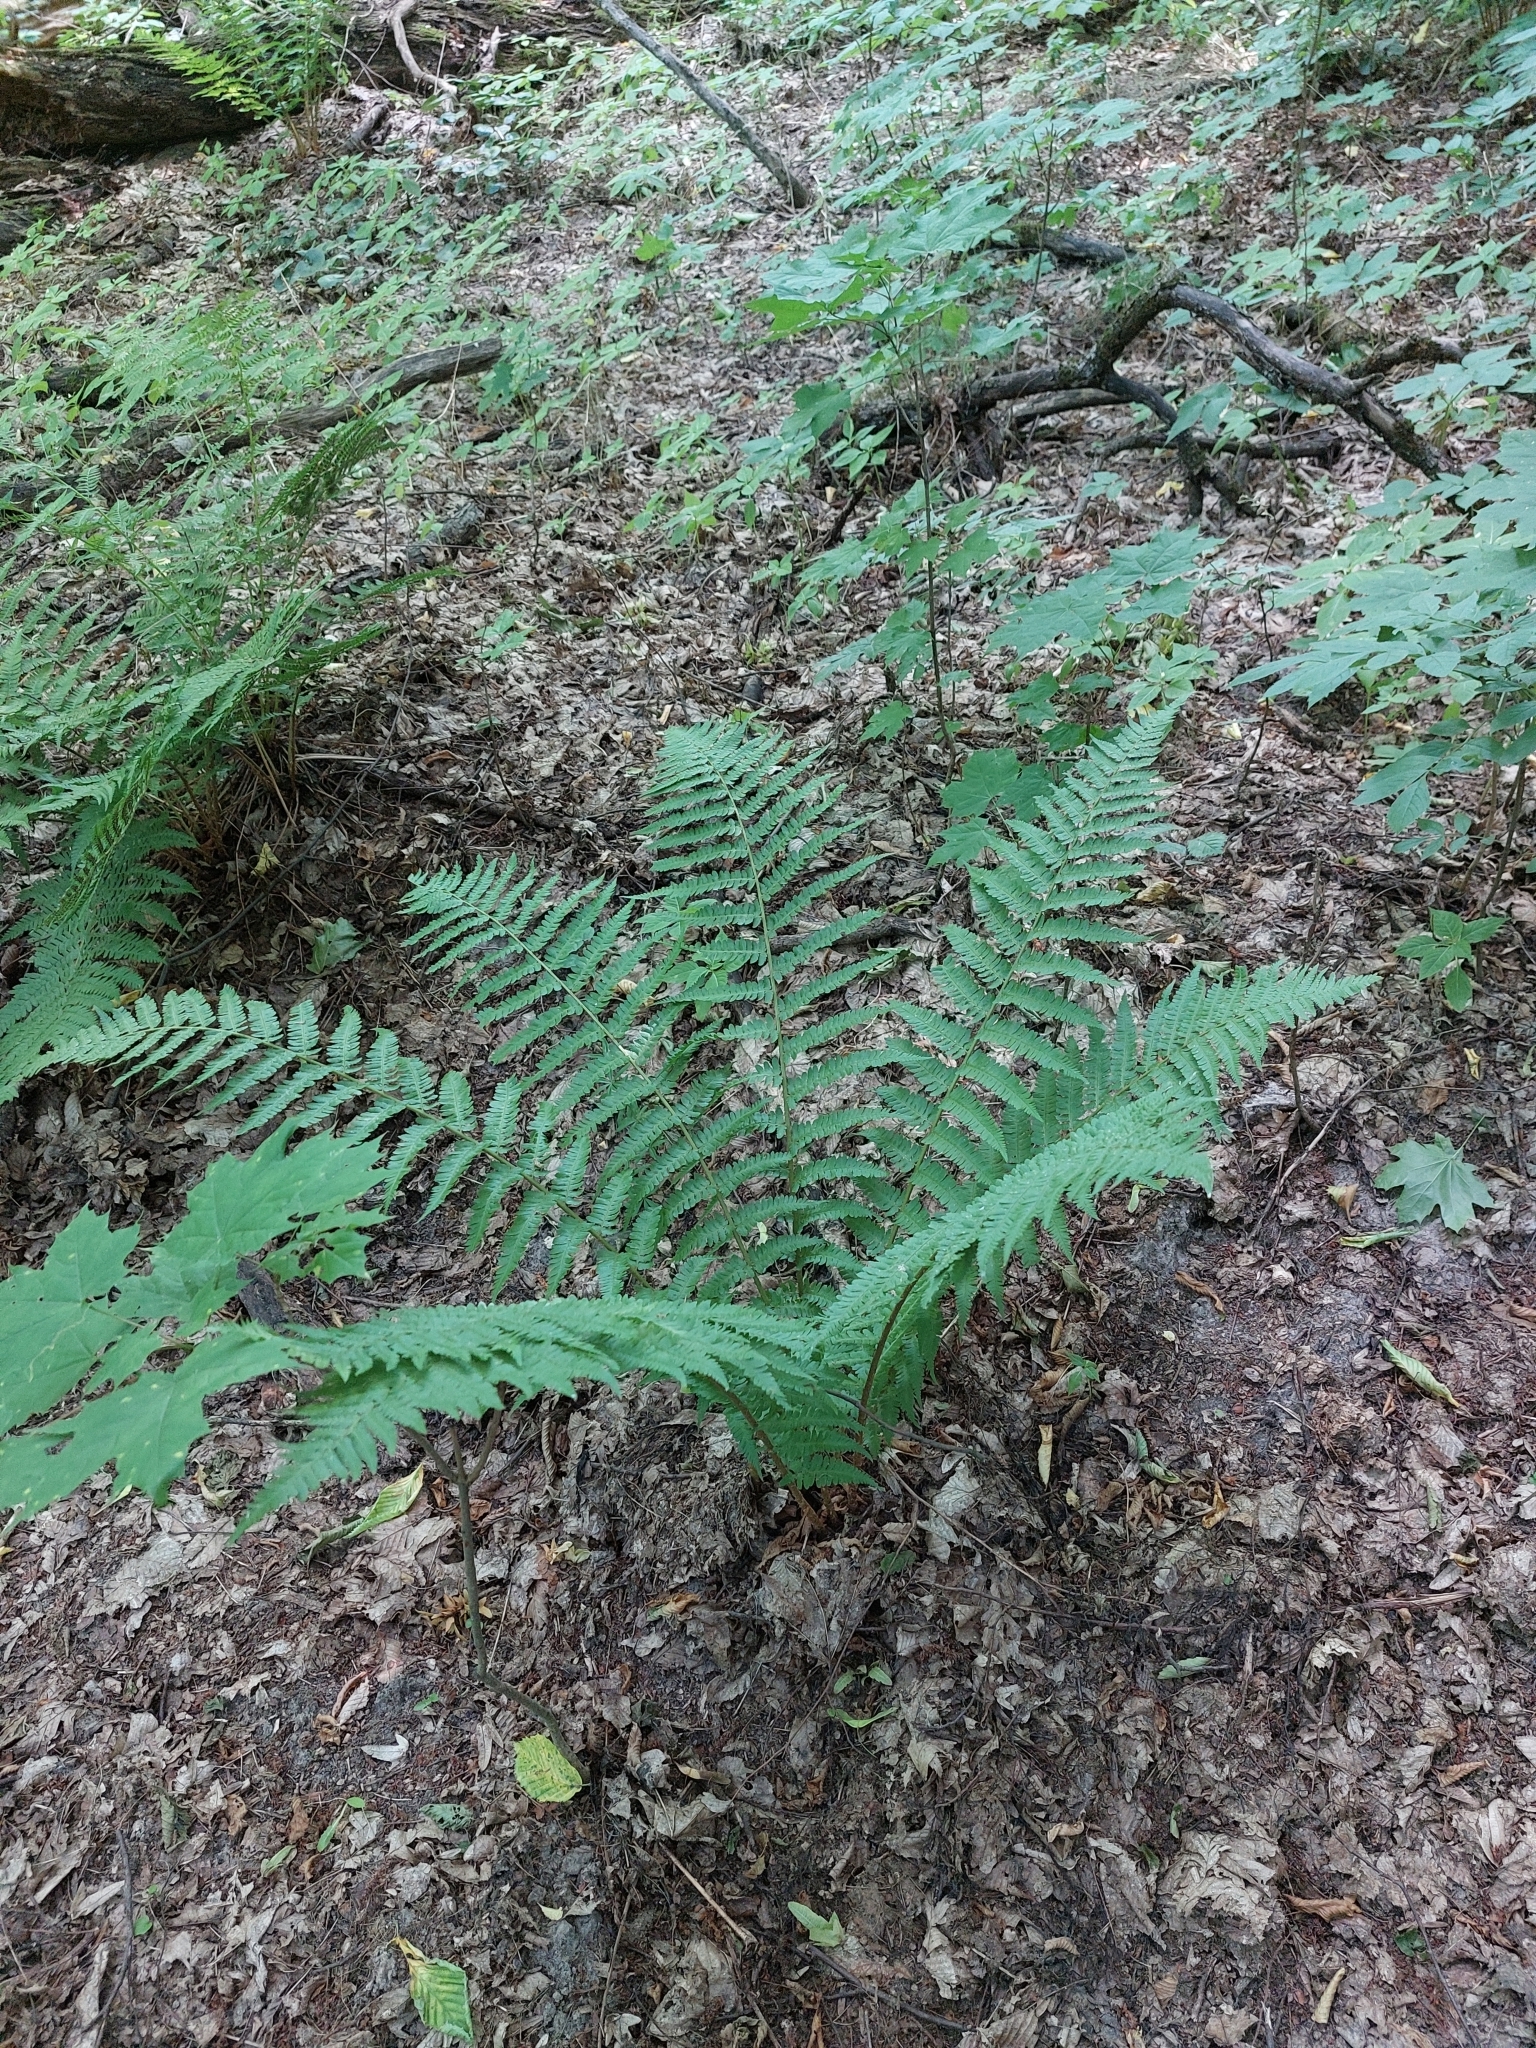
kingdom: Plantae
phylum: Tracheophyta
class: Polypodiopsida
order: Polypodiales
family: Dryopteridaceae
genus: Dryopteris
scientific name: Dryopteris filix-mas
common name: Male fern
